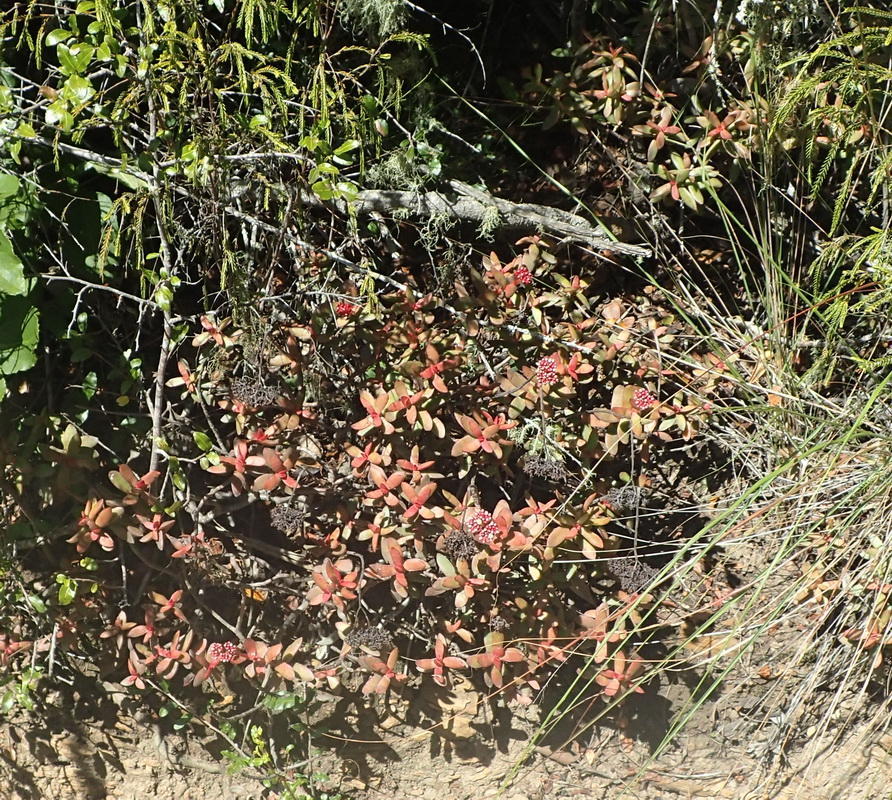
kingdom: Plantae
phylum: Tracheophyta
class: Magnoliopsida
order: Saxifragales
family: Crassulaceae
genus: Crassula
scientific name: Crassula rubricaulis
